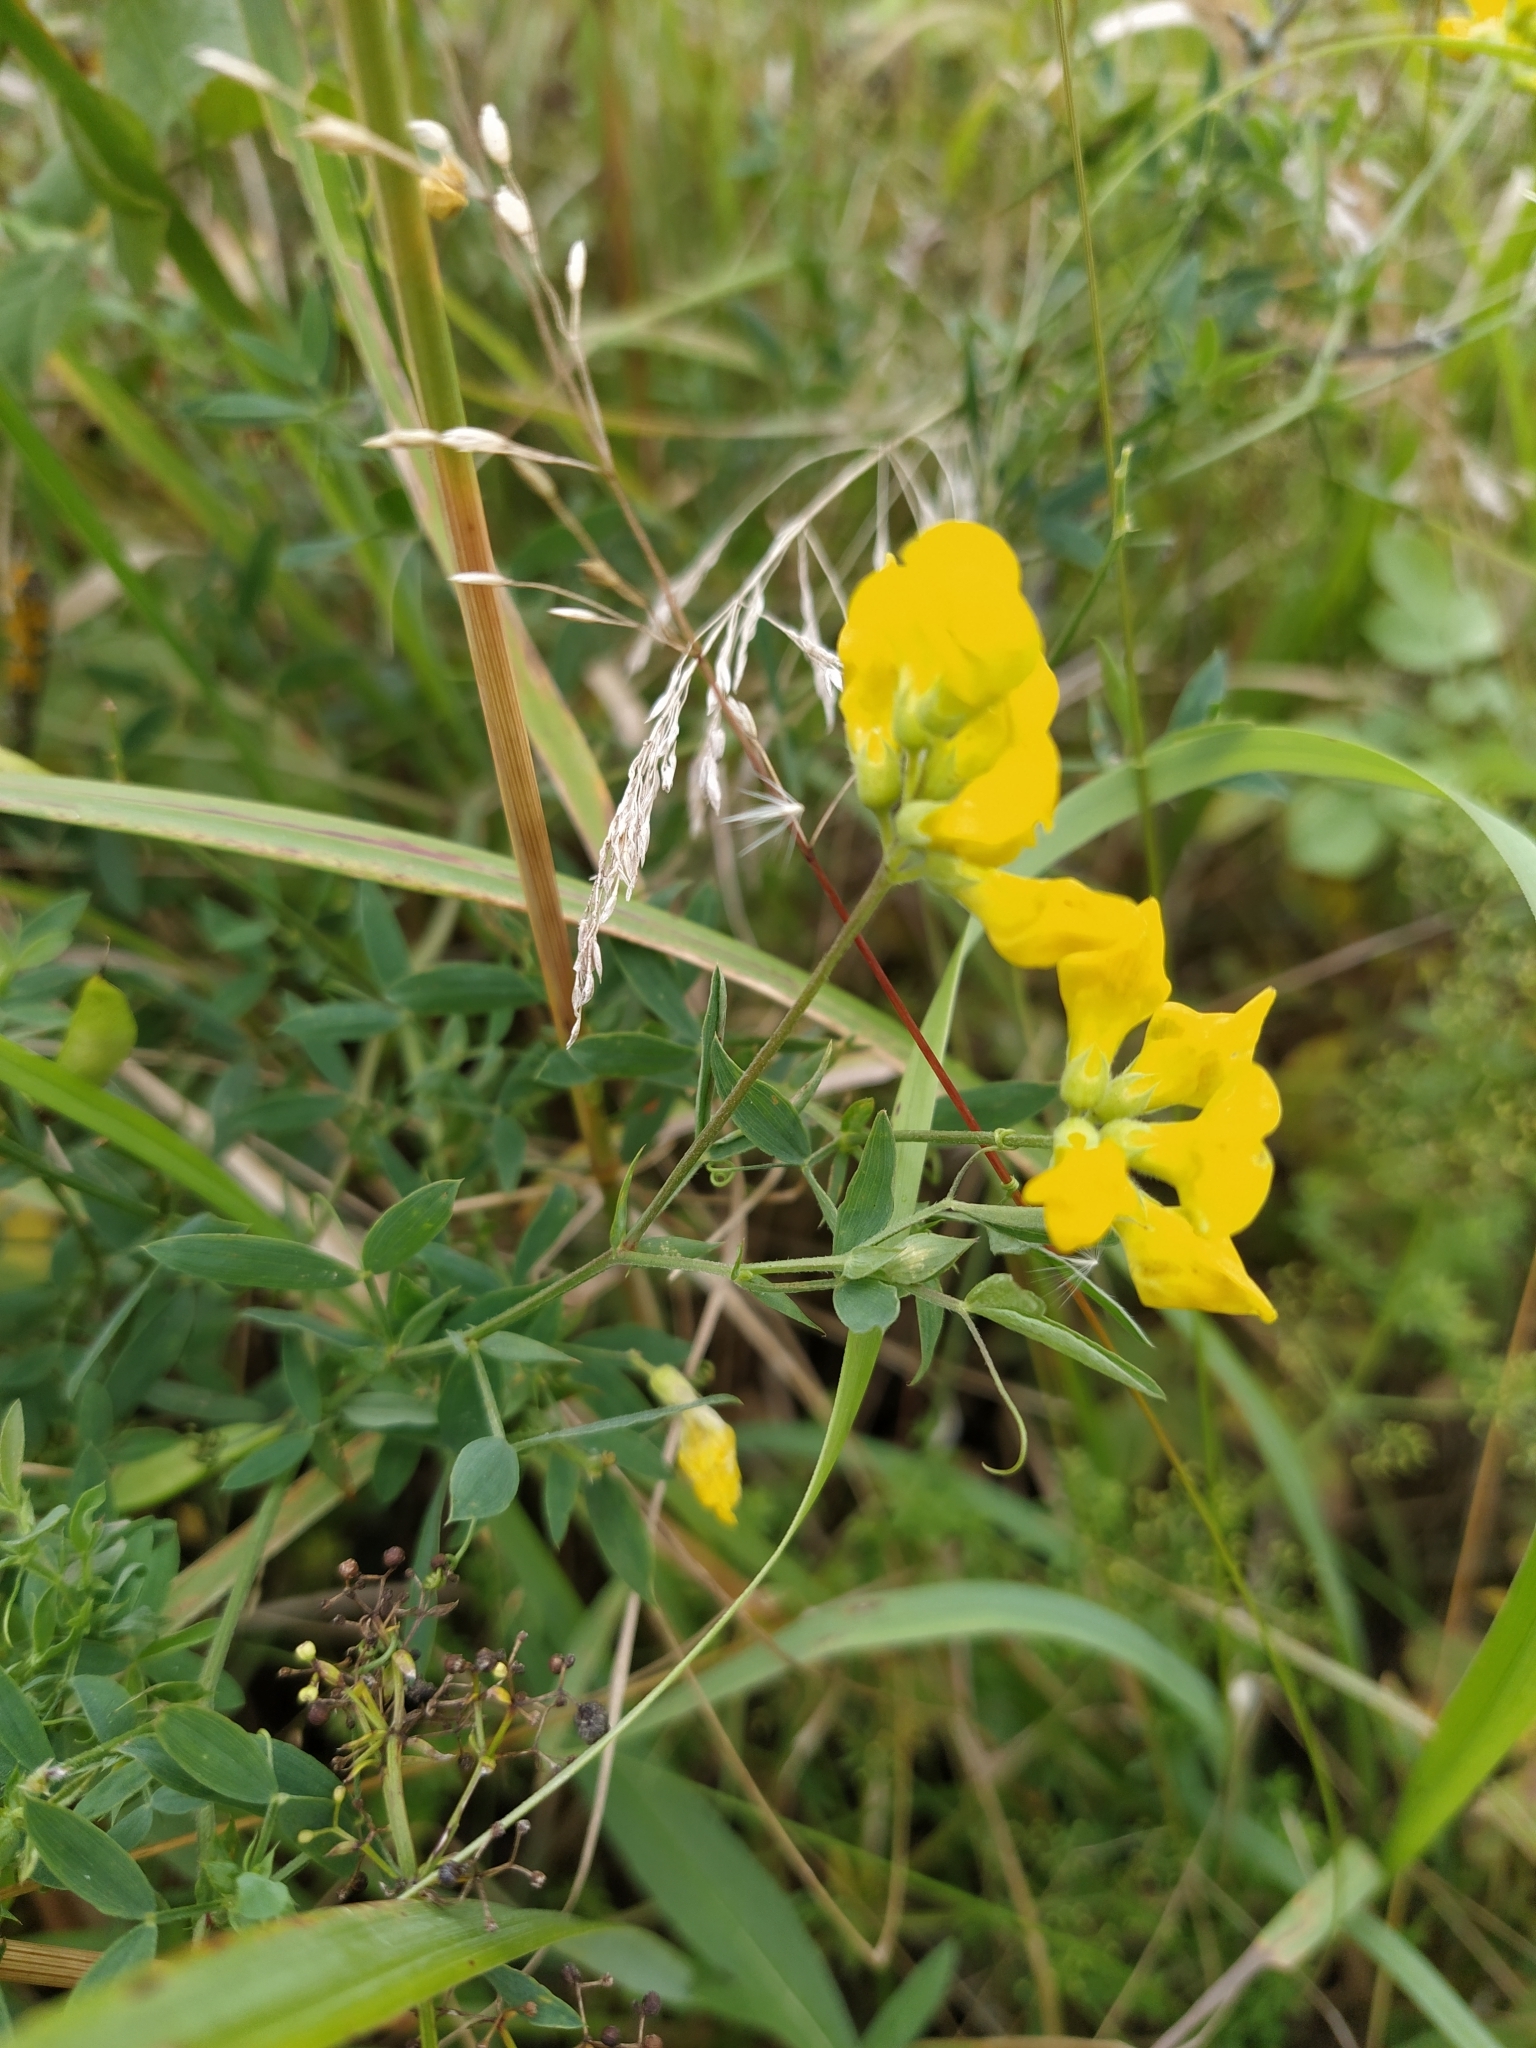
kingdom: Plantae
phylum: Tracheophyta
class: Magnoliopsida
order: Fabales
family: Fabaceae
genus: Lathyrus
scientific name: Lathyrus pratensis
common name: Meadow vetchling
